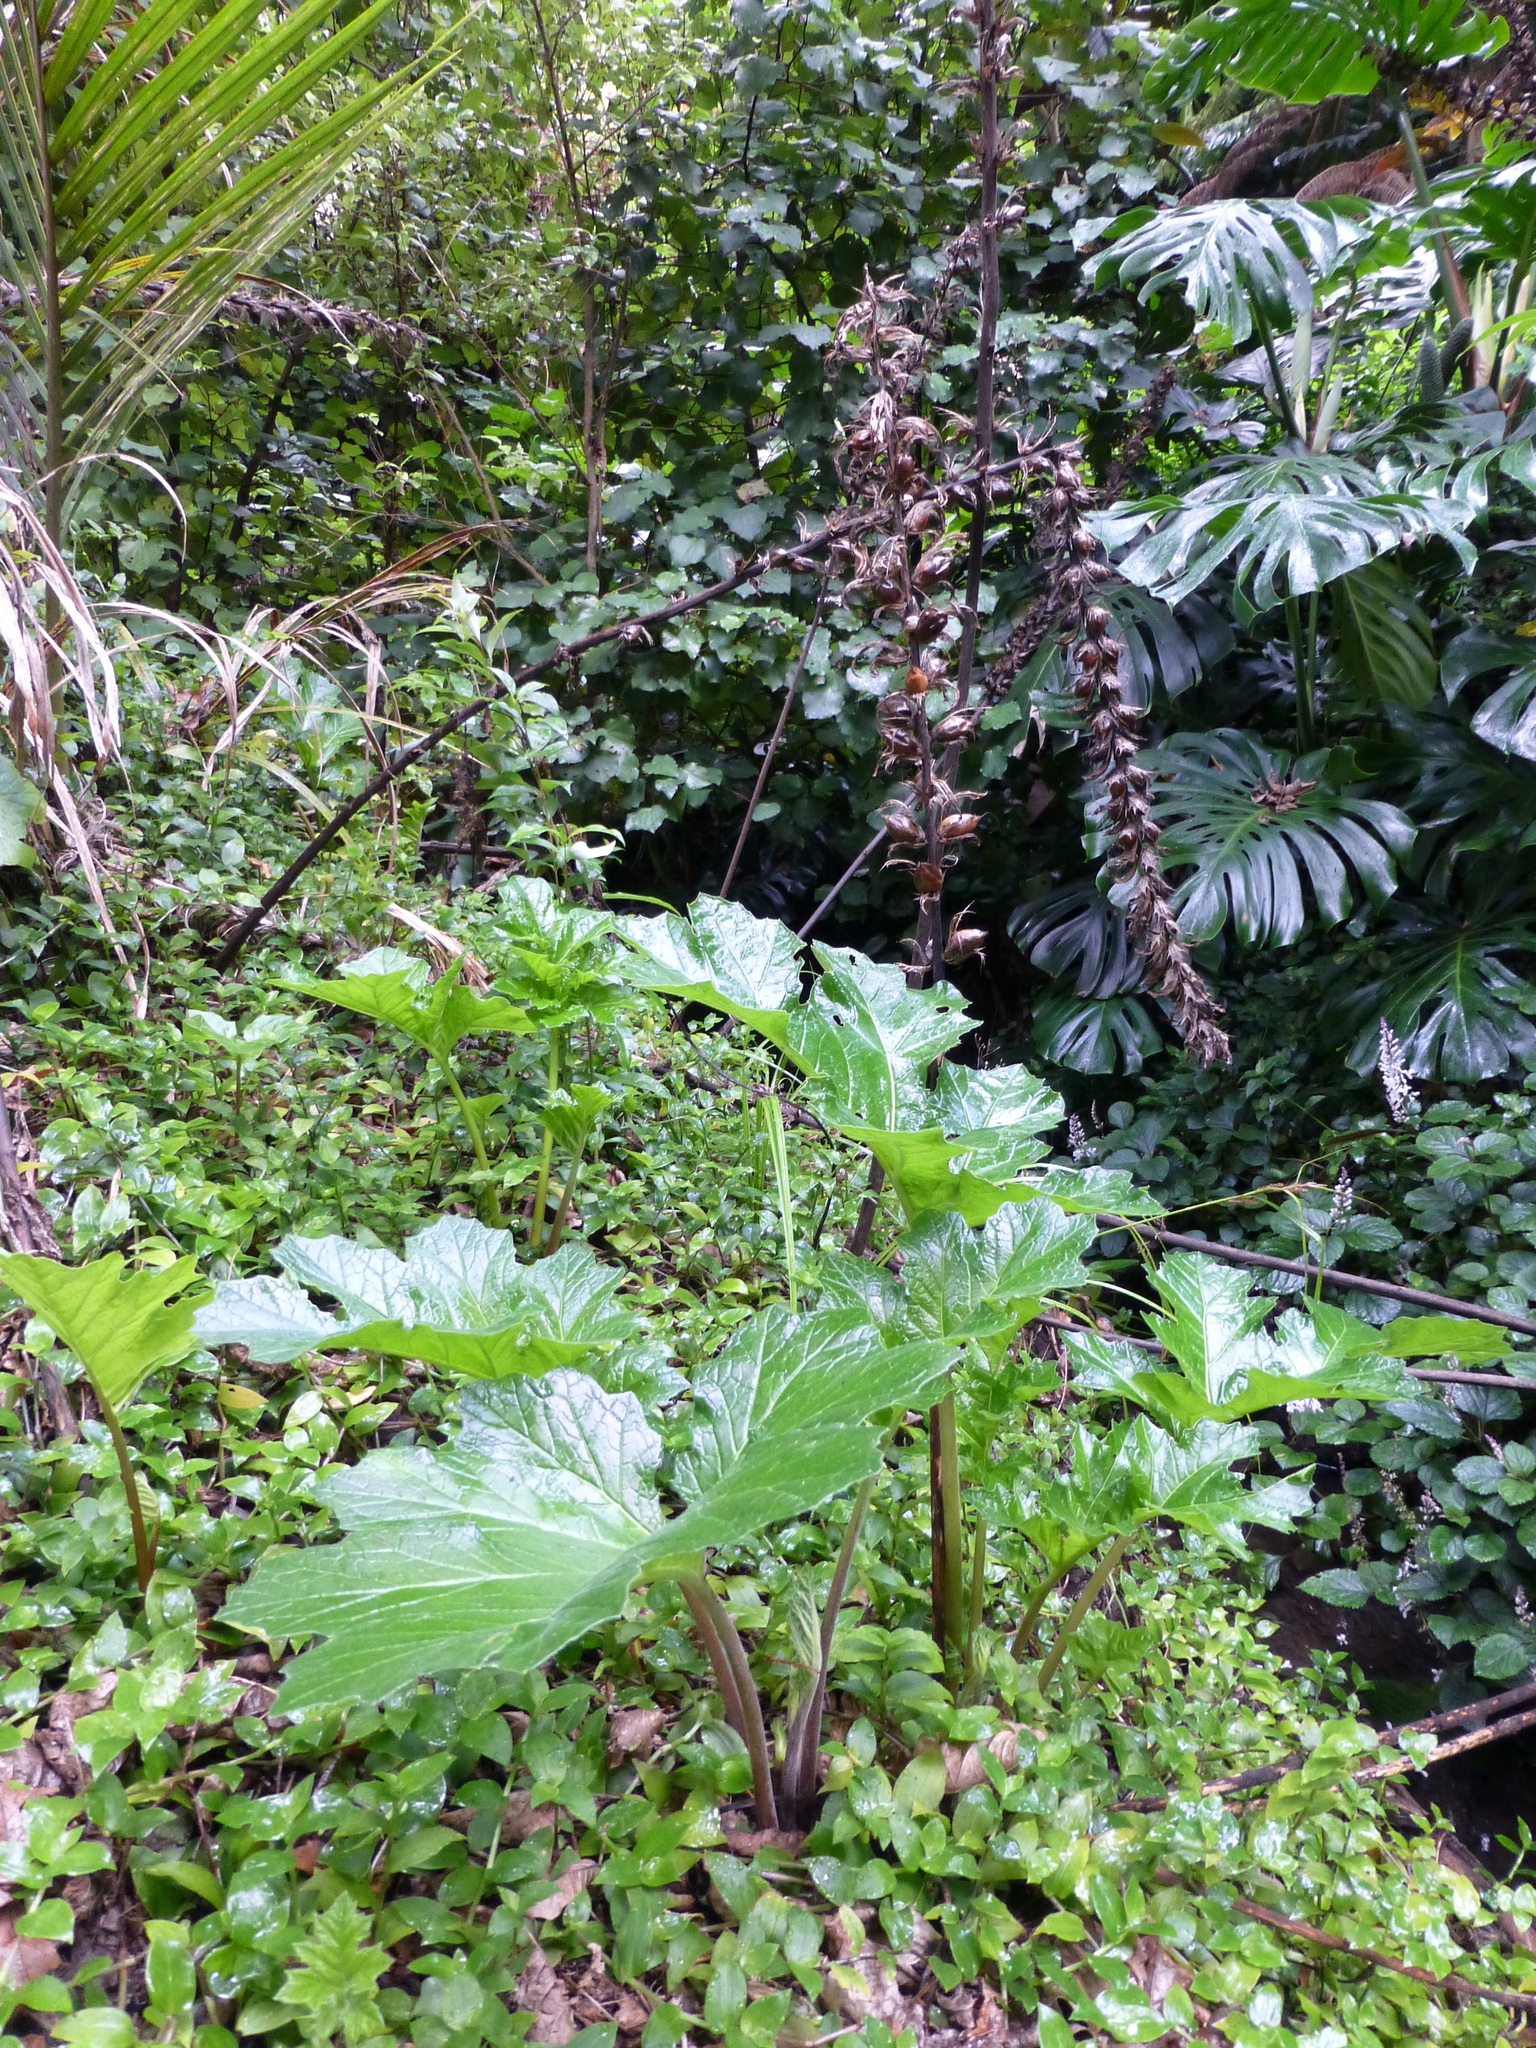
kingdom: Plantae
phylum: Tracheophyta
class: Magnoliopsida
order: Lamiales
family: Acanthaceae
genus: Acanthus
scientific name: Acanthus mollis
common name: Bear's-breech
